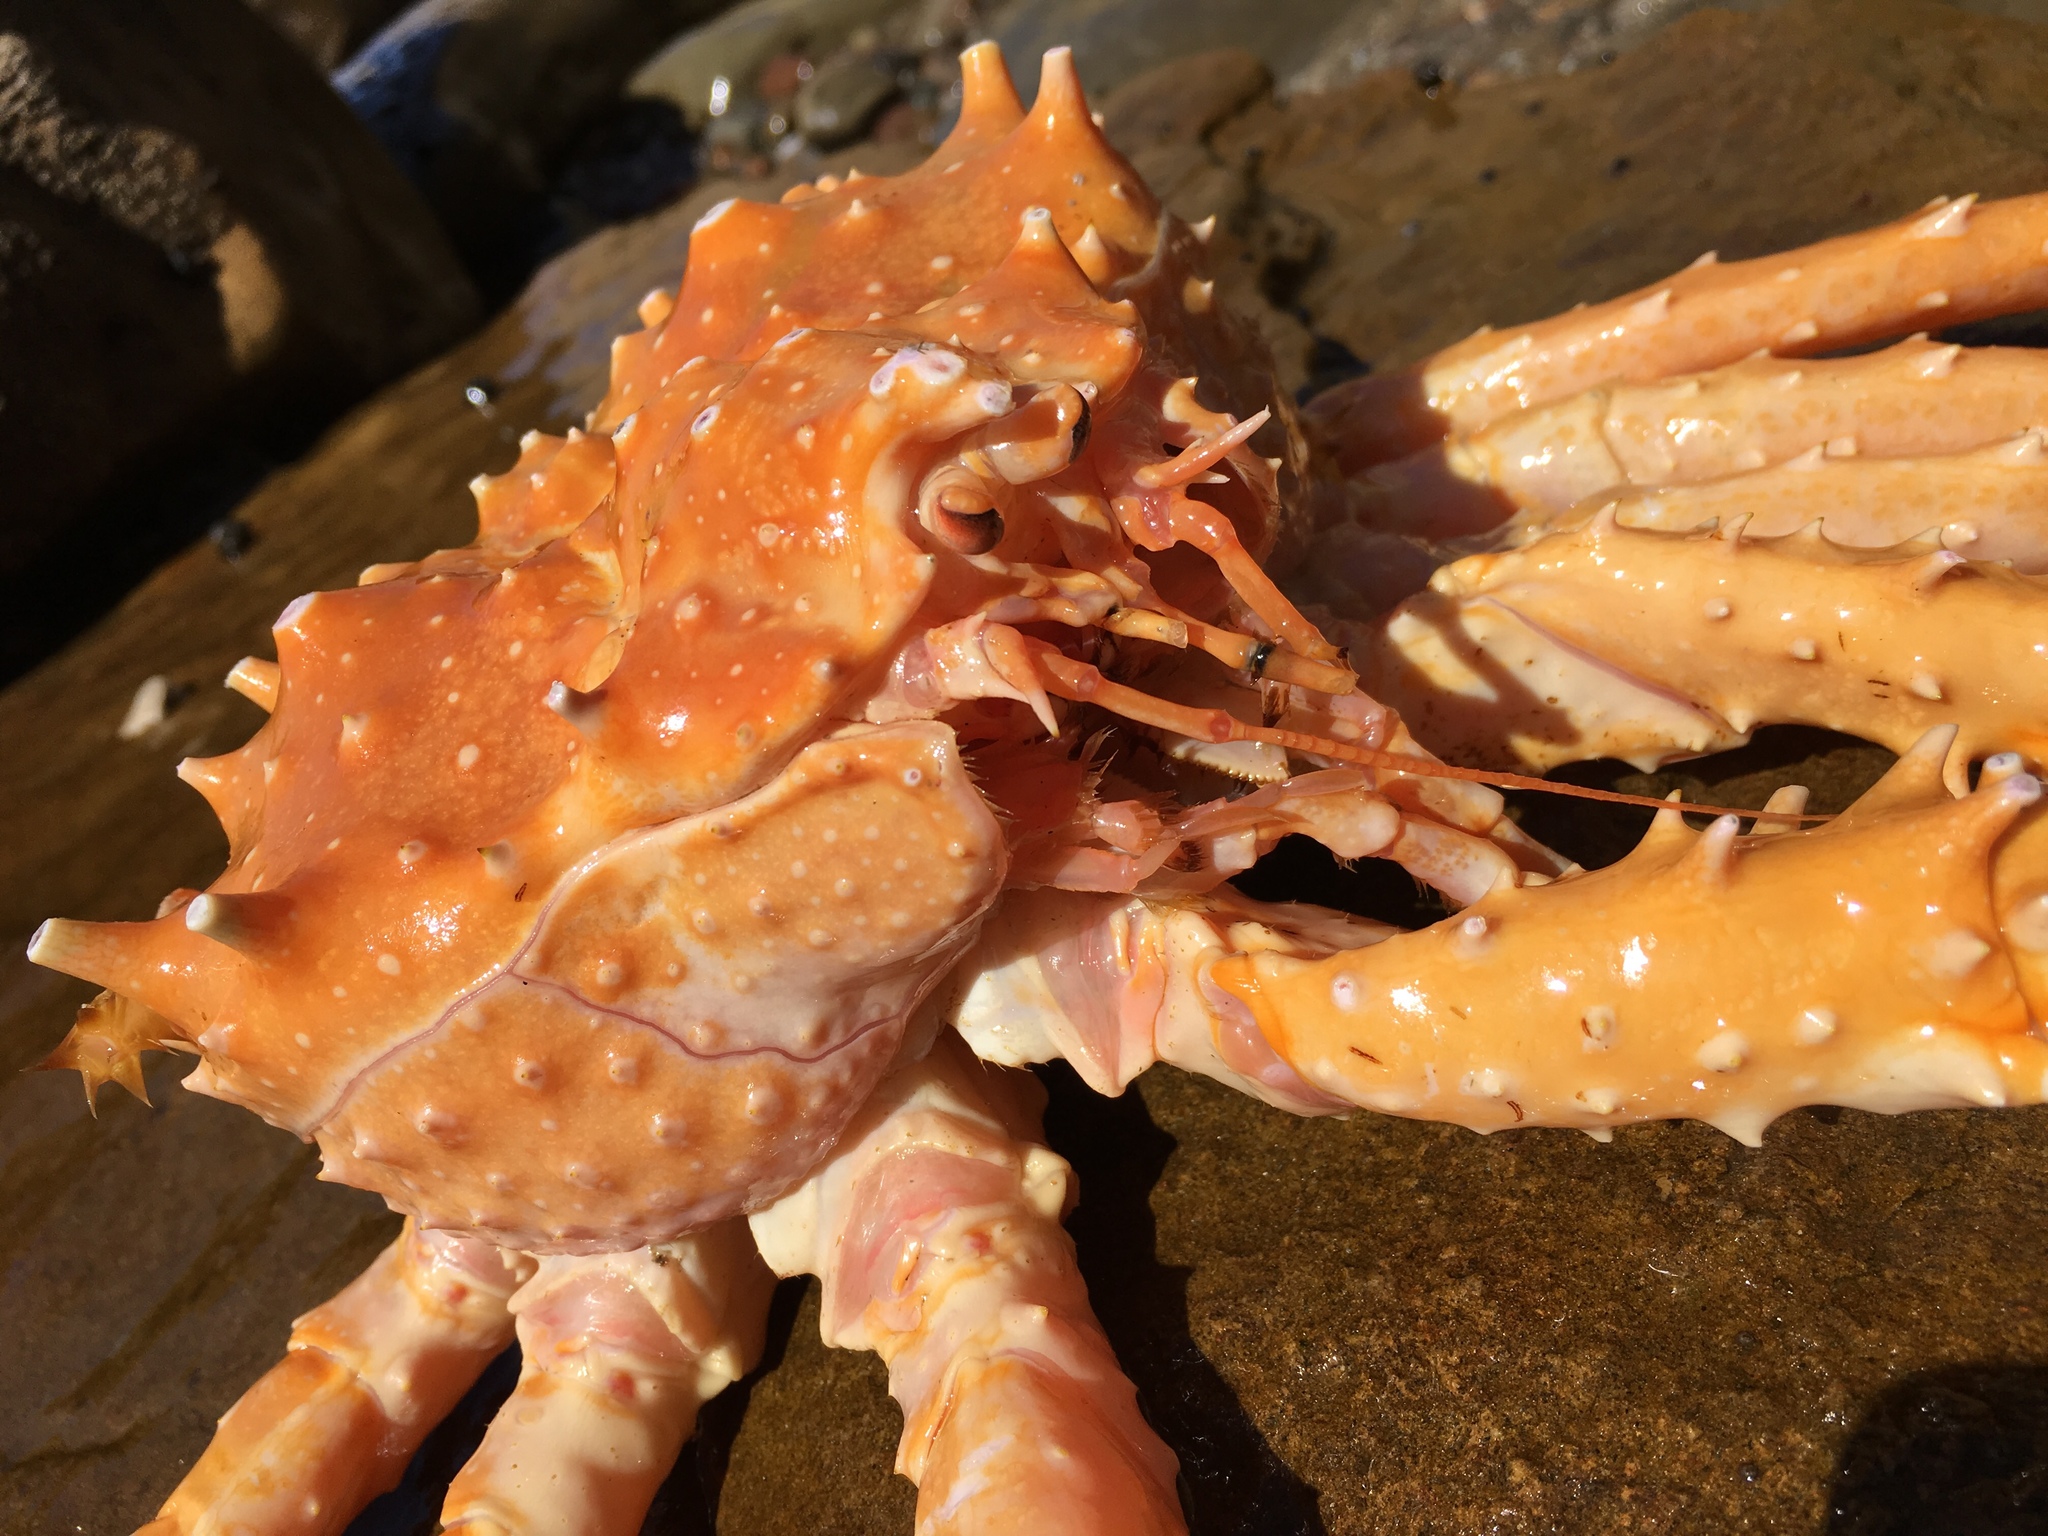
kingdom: Animalia
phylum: Arthropoda
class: Malacostraca
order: Decapoda
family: Lithodidae
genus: Paralithodes
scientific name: Paralithodes californiensis
